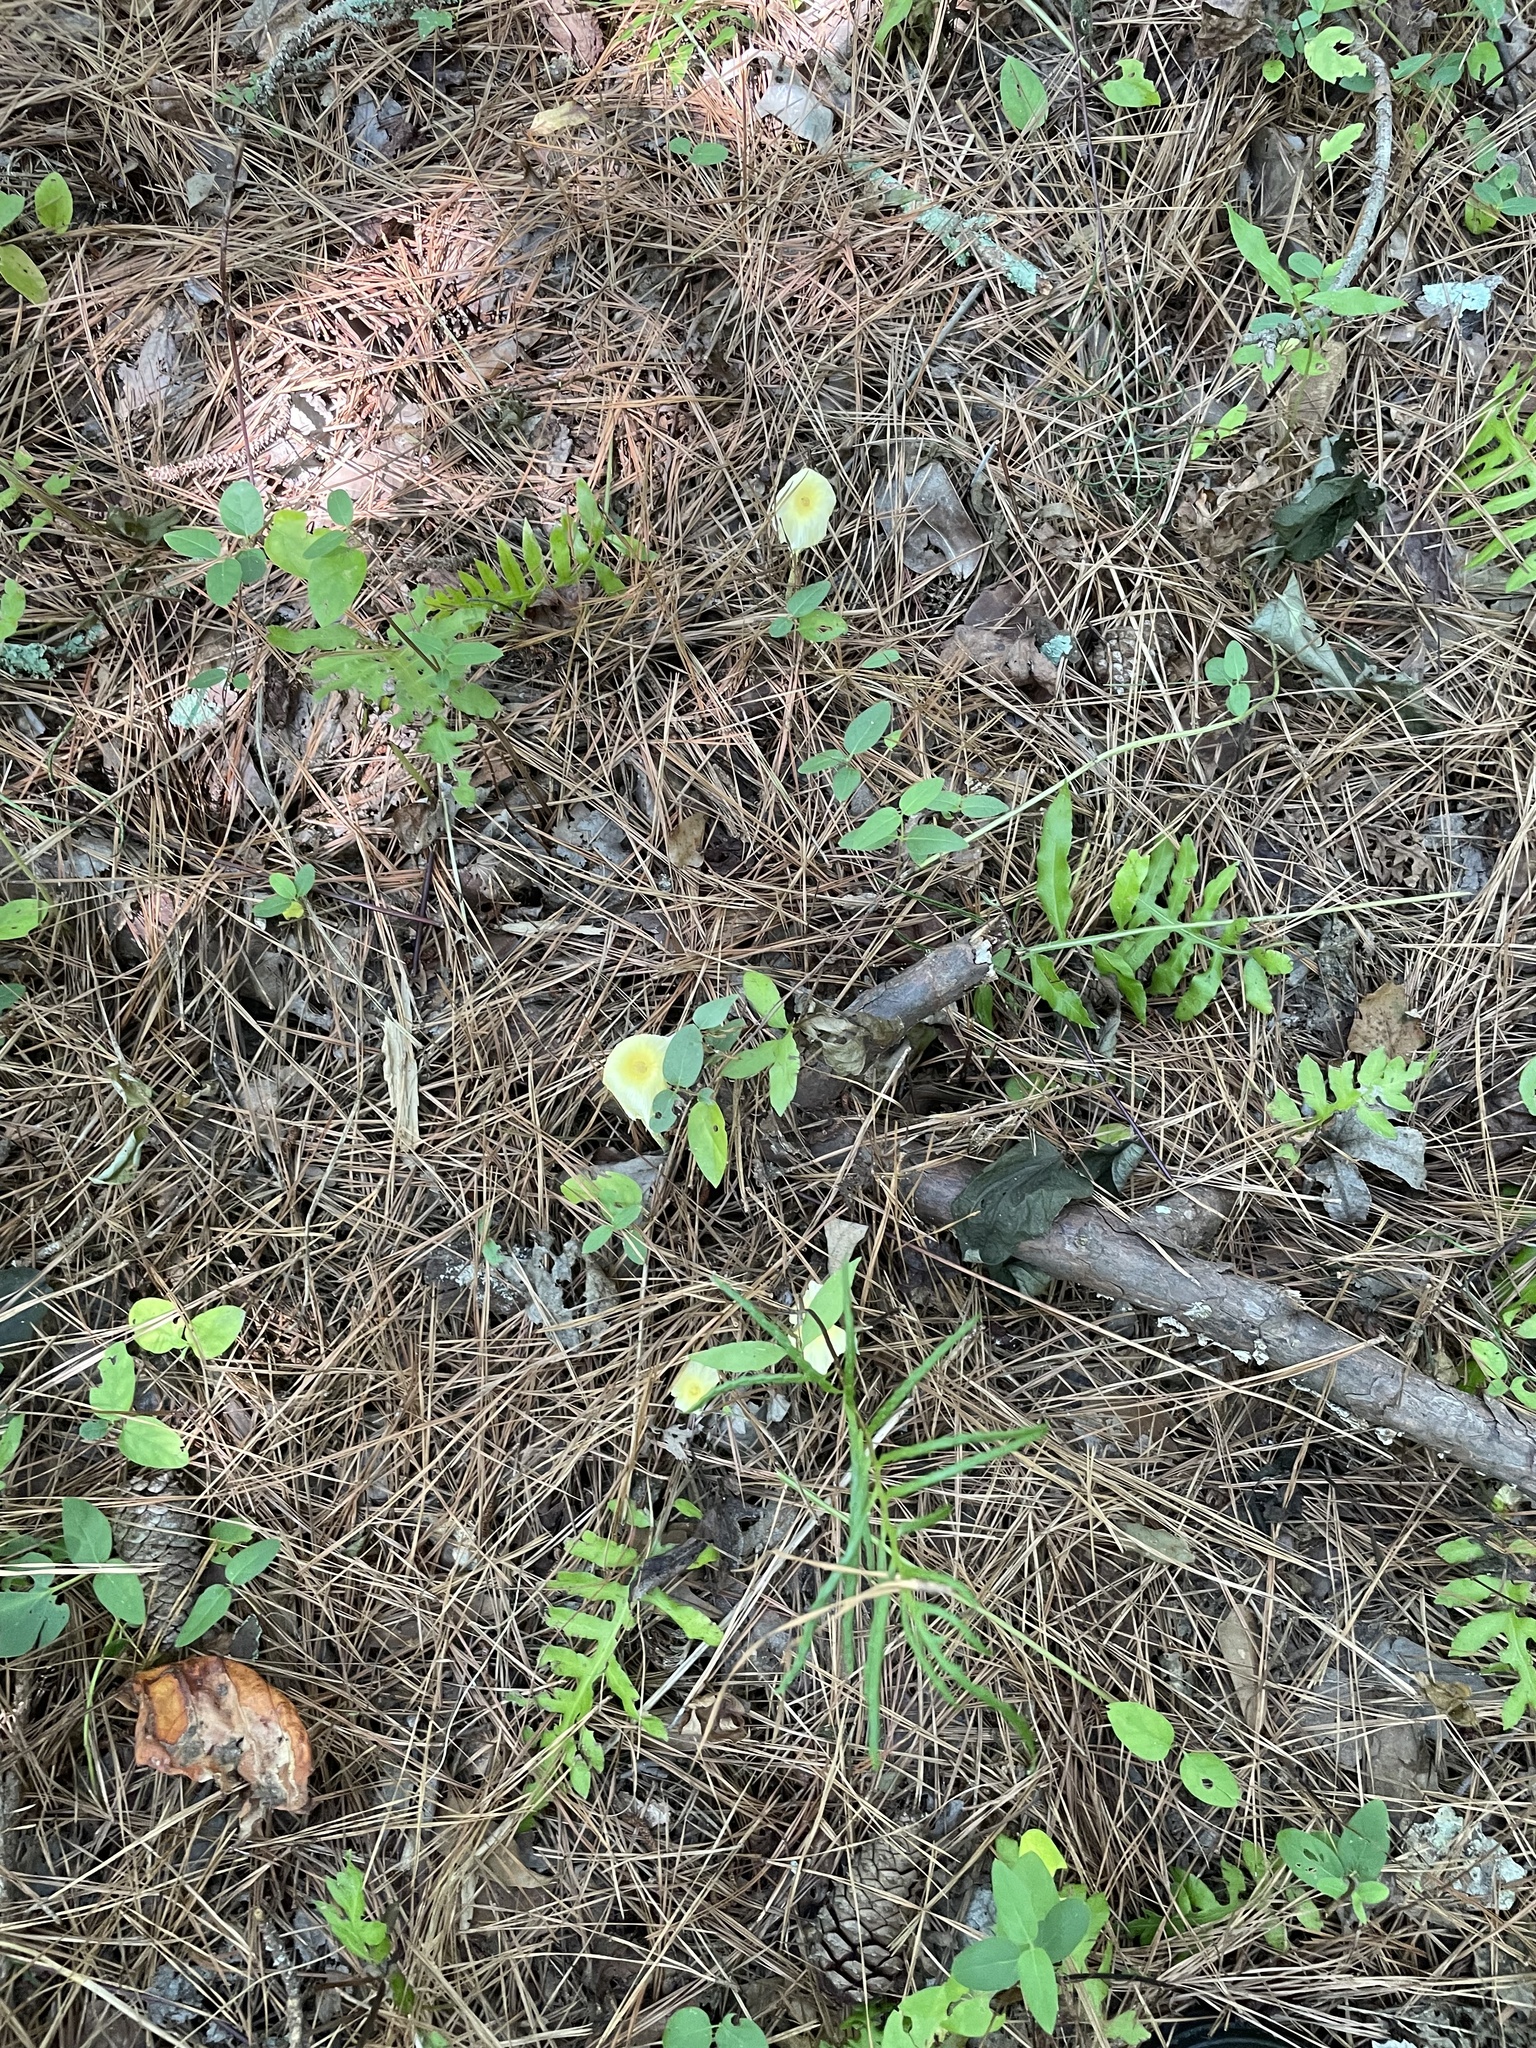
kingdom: Fungi
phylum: Basidiomycota
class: Agaricomycetes
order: Agaricales
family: Agaricaceae
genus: Leucocoprinus
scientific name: Leucocoprinus fragilissimus
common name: Fragile dapperling
